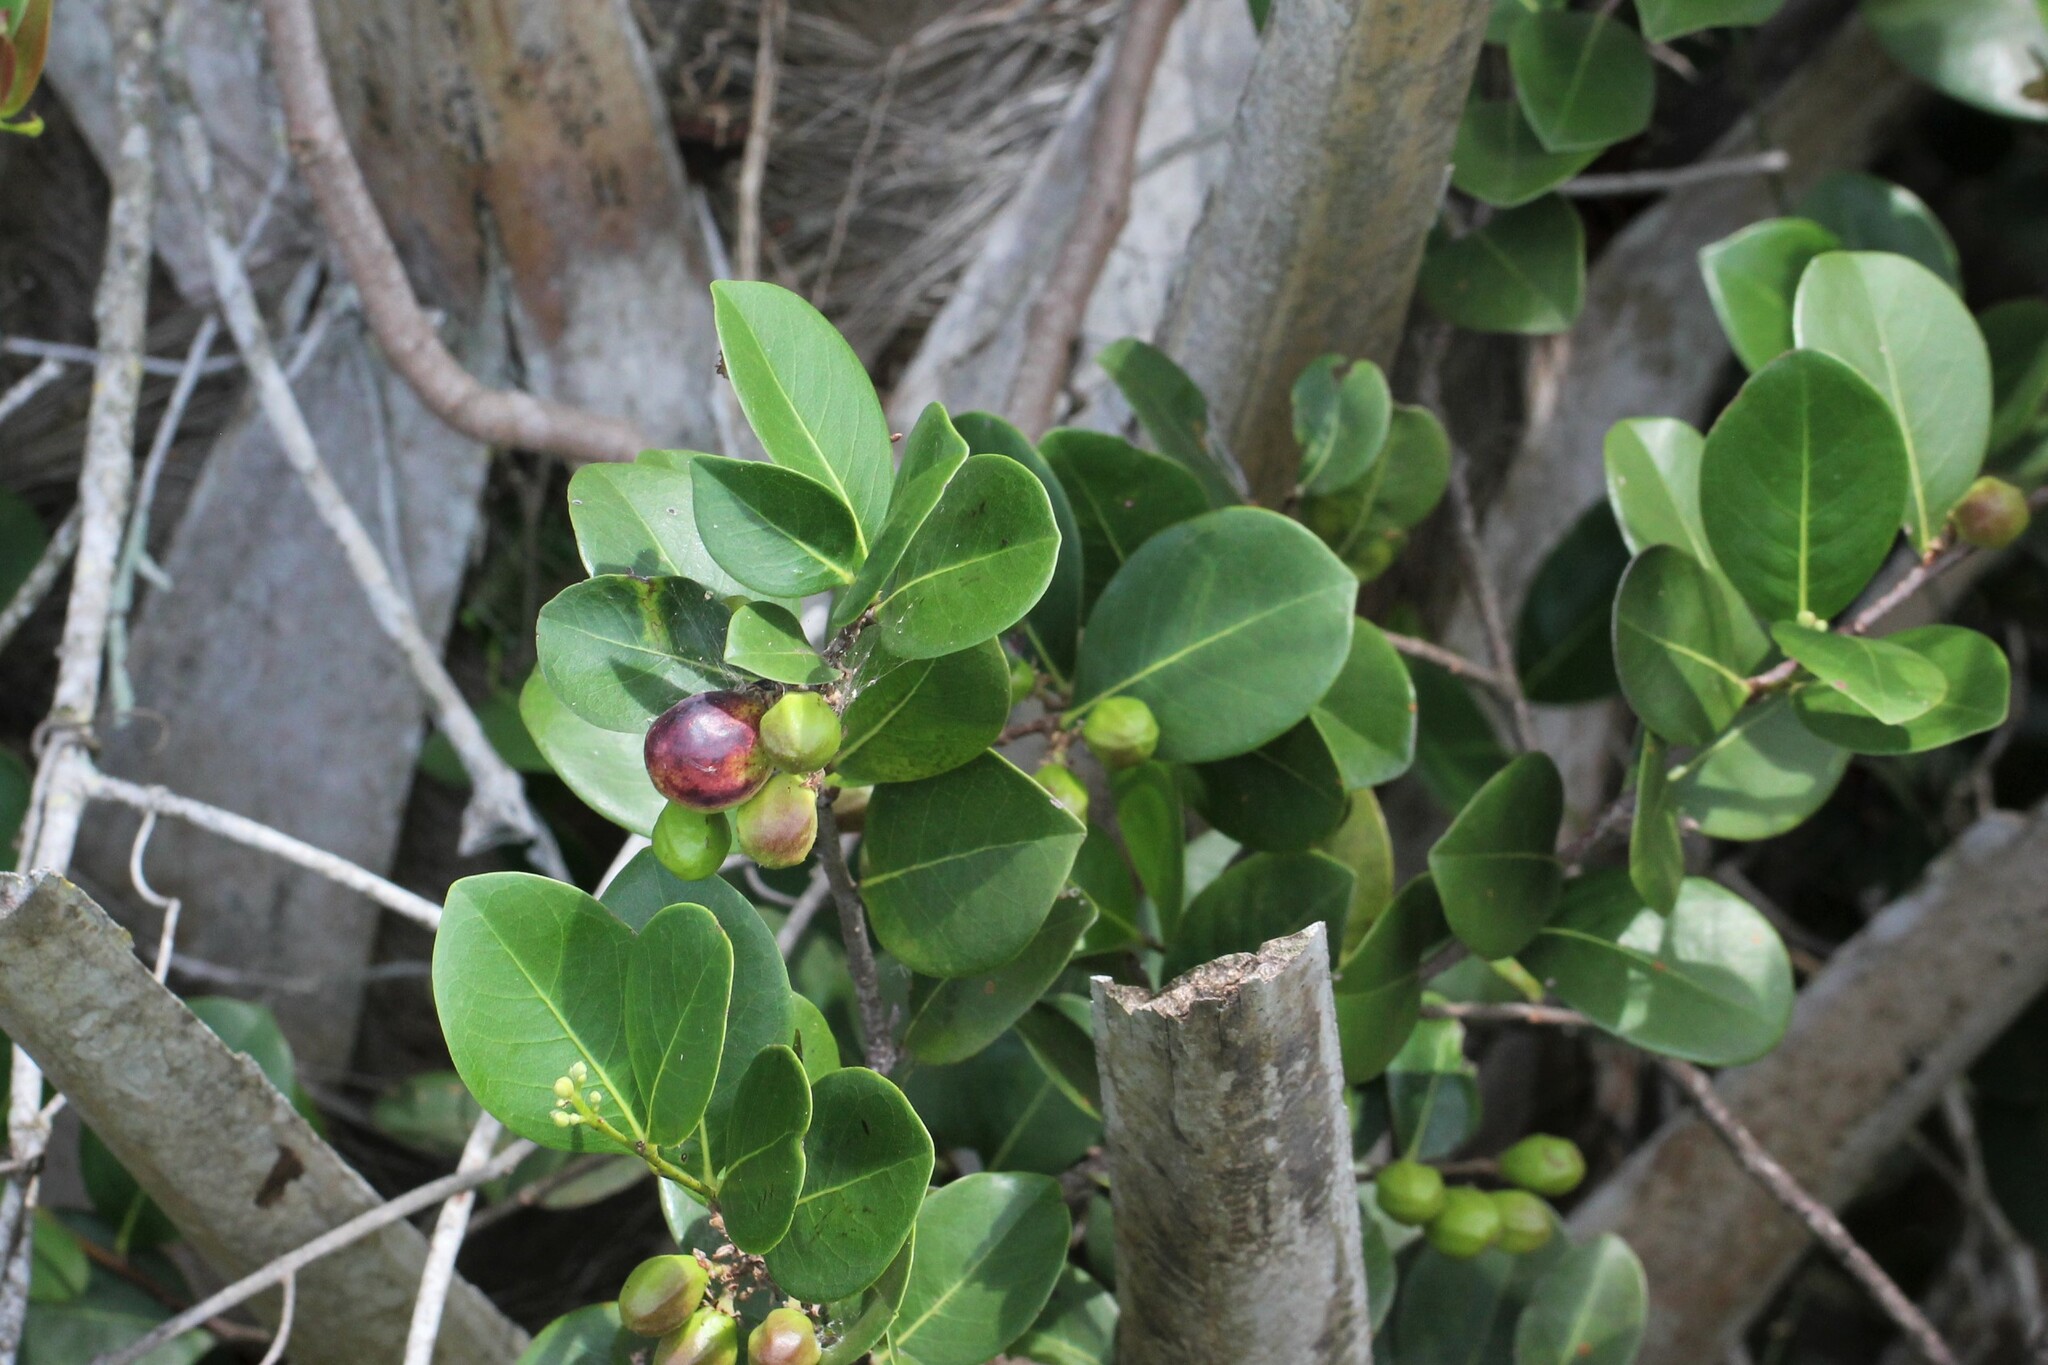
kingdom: Plantae
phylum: Tracheophyta
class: Magnoliopsida
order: Malpighiales
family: Chrysobalanaceae
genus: Chrysobalanus
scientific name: Chrysobalanus icaco
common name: Coco plum
